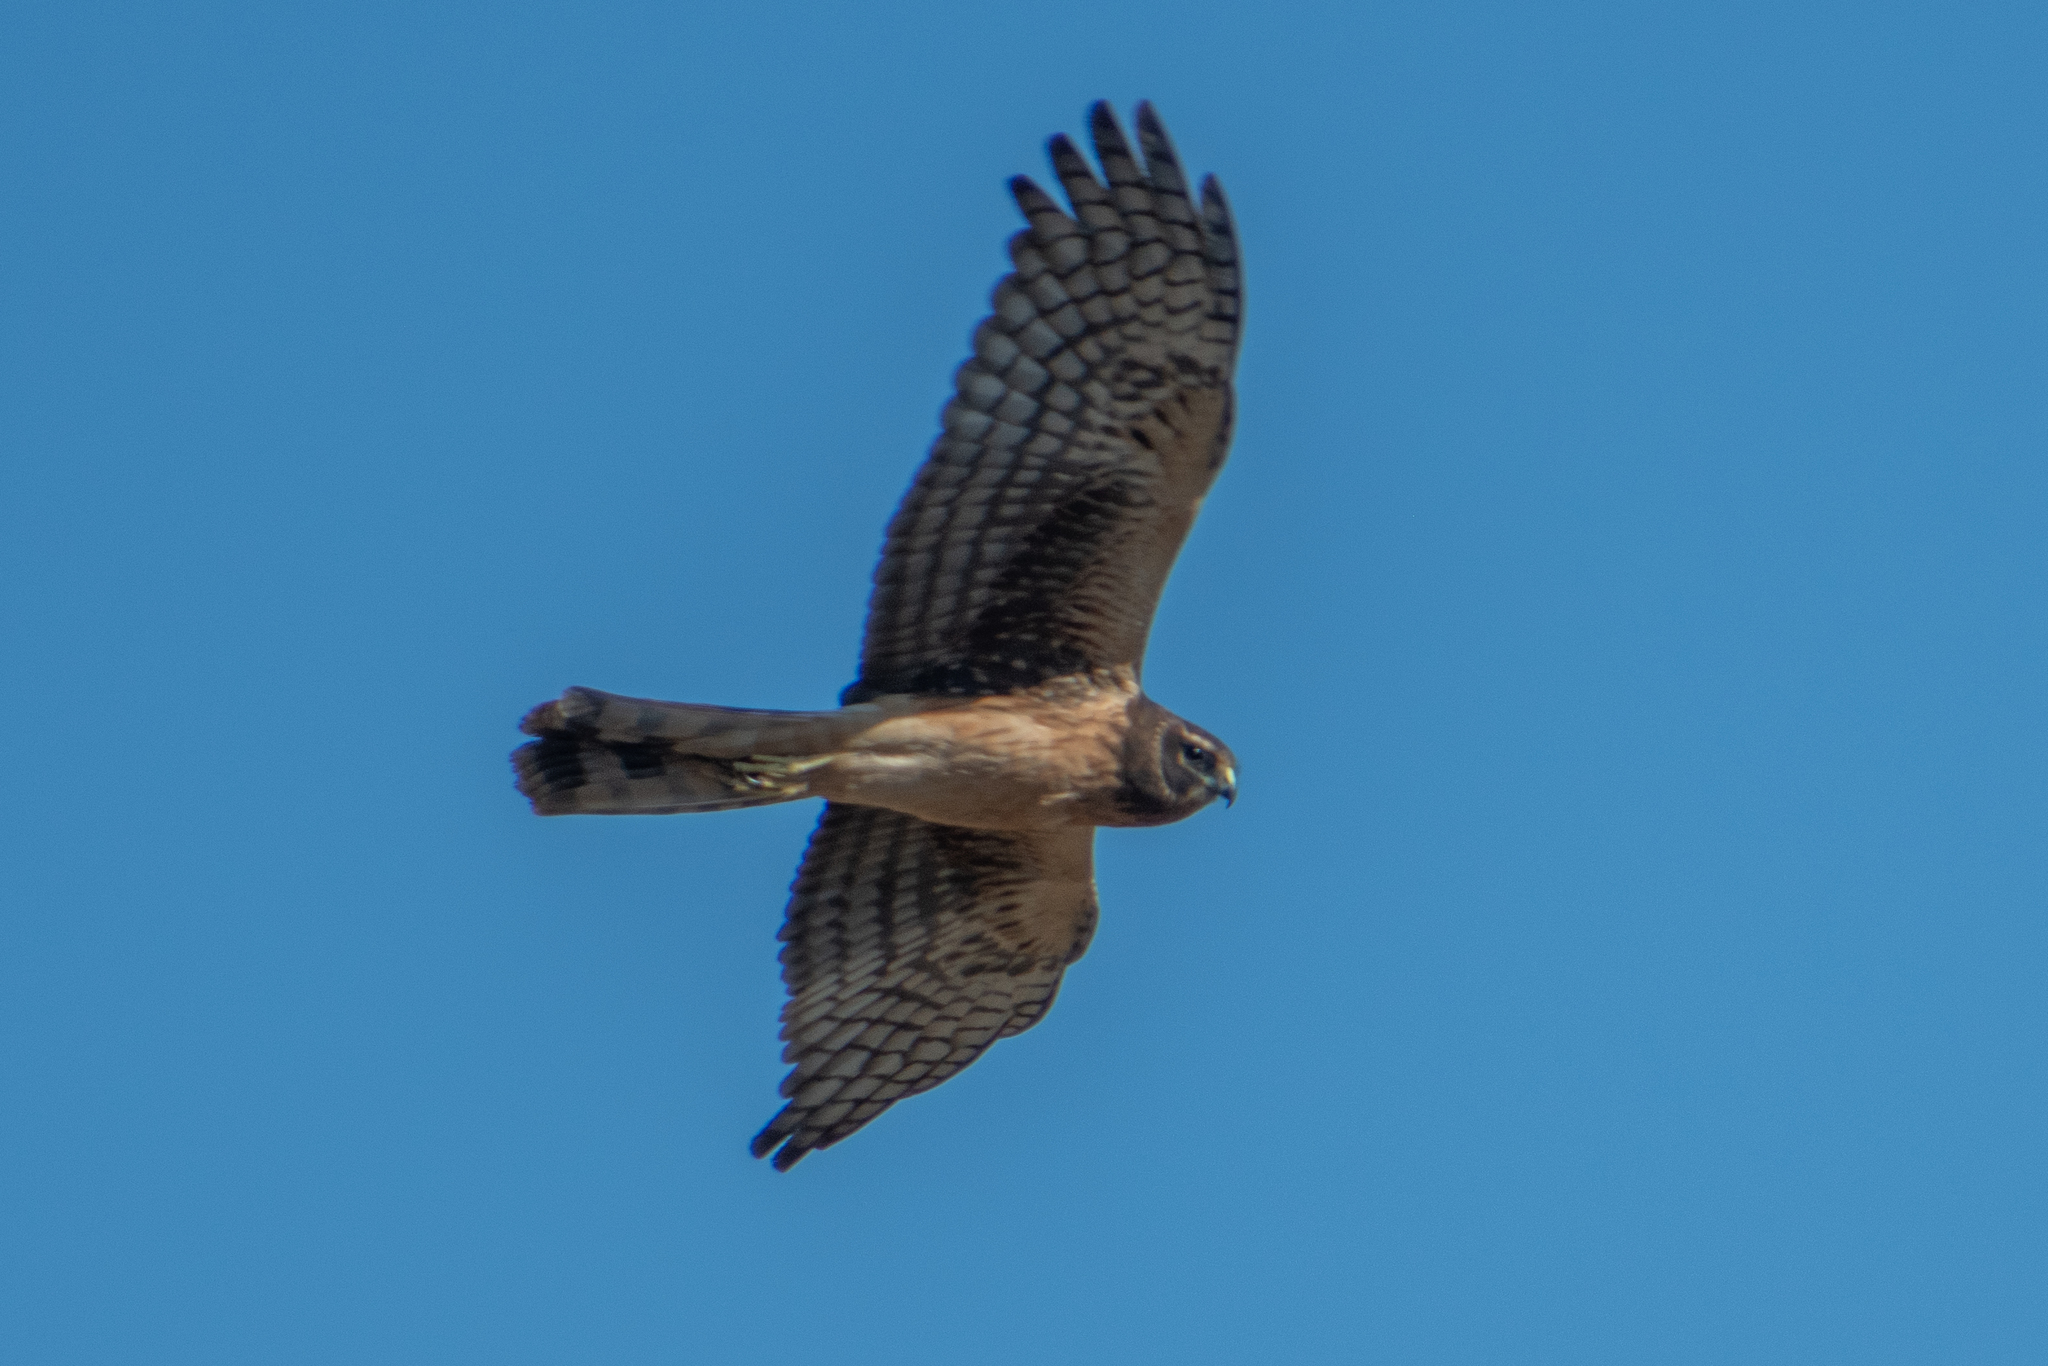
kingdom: Animalia
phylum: Chordata
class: Aves
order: Accipitriformes
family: Accipitridae
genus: Circus
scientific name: Circus cyaneus
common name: Hen harrier
